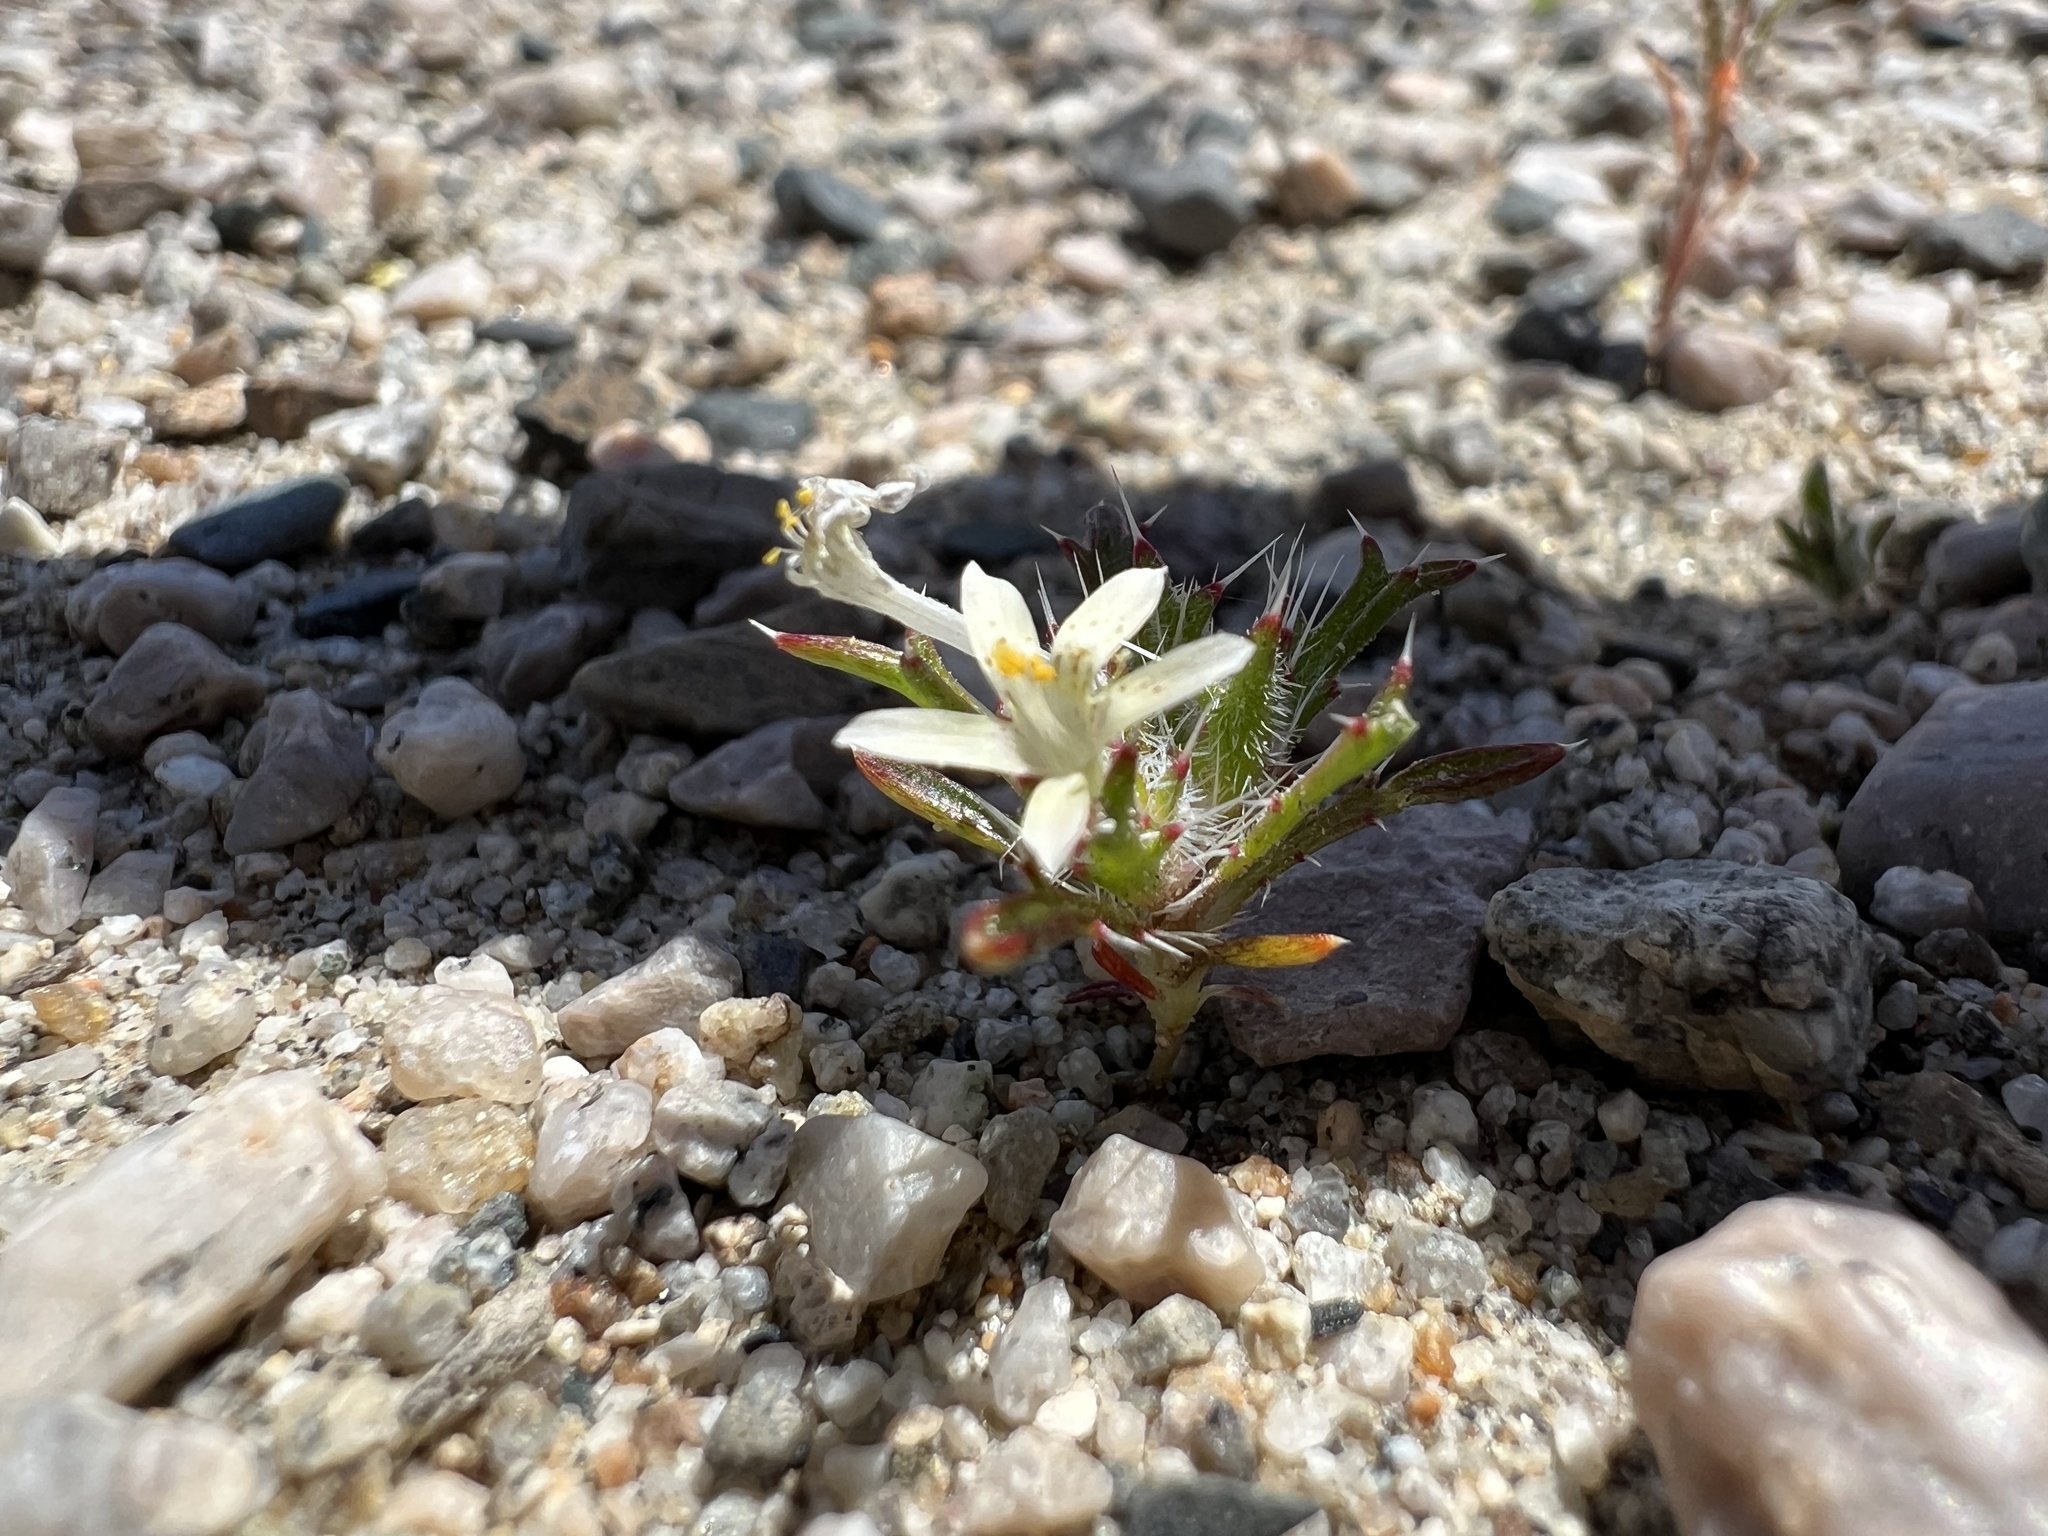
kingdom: Plantae
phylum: Tracheophyta
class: Magnoliopsida
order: Ericales
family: Polemoniaceae
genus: Loeseliastrum
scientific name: Loeseliastrum schottii
